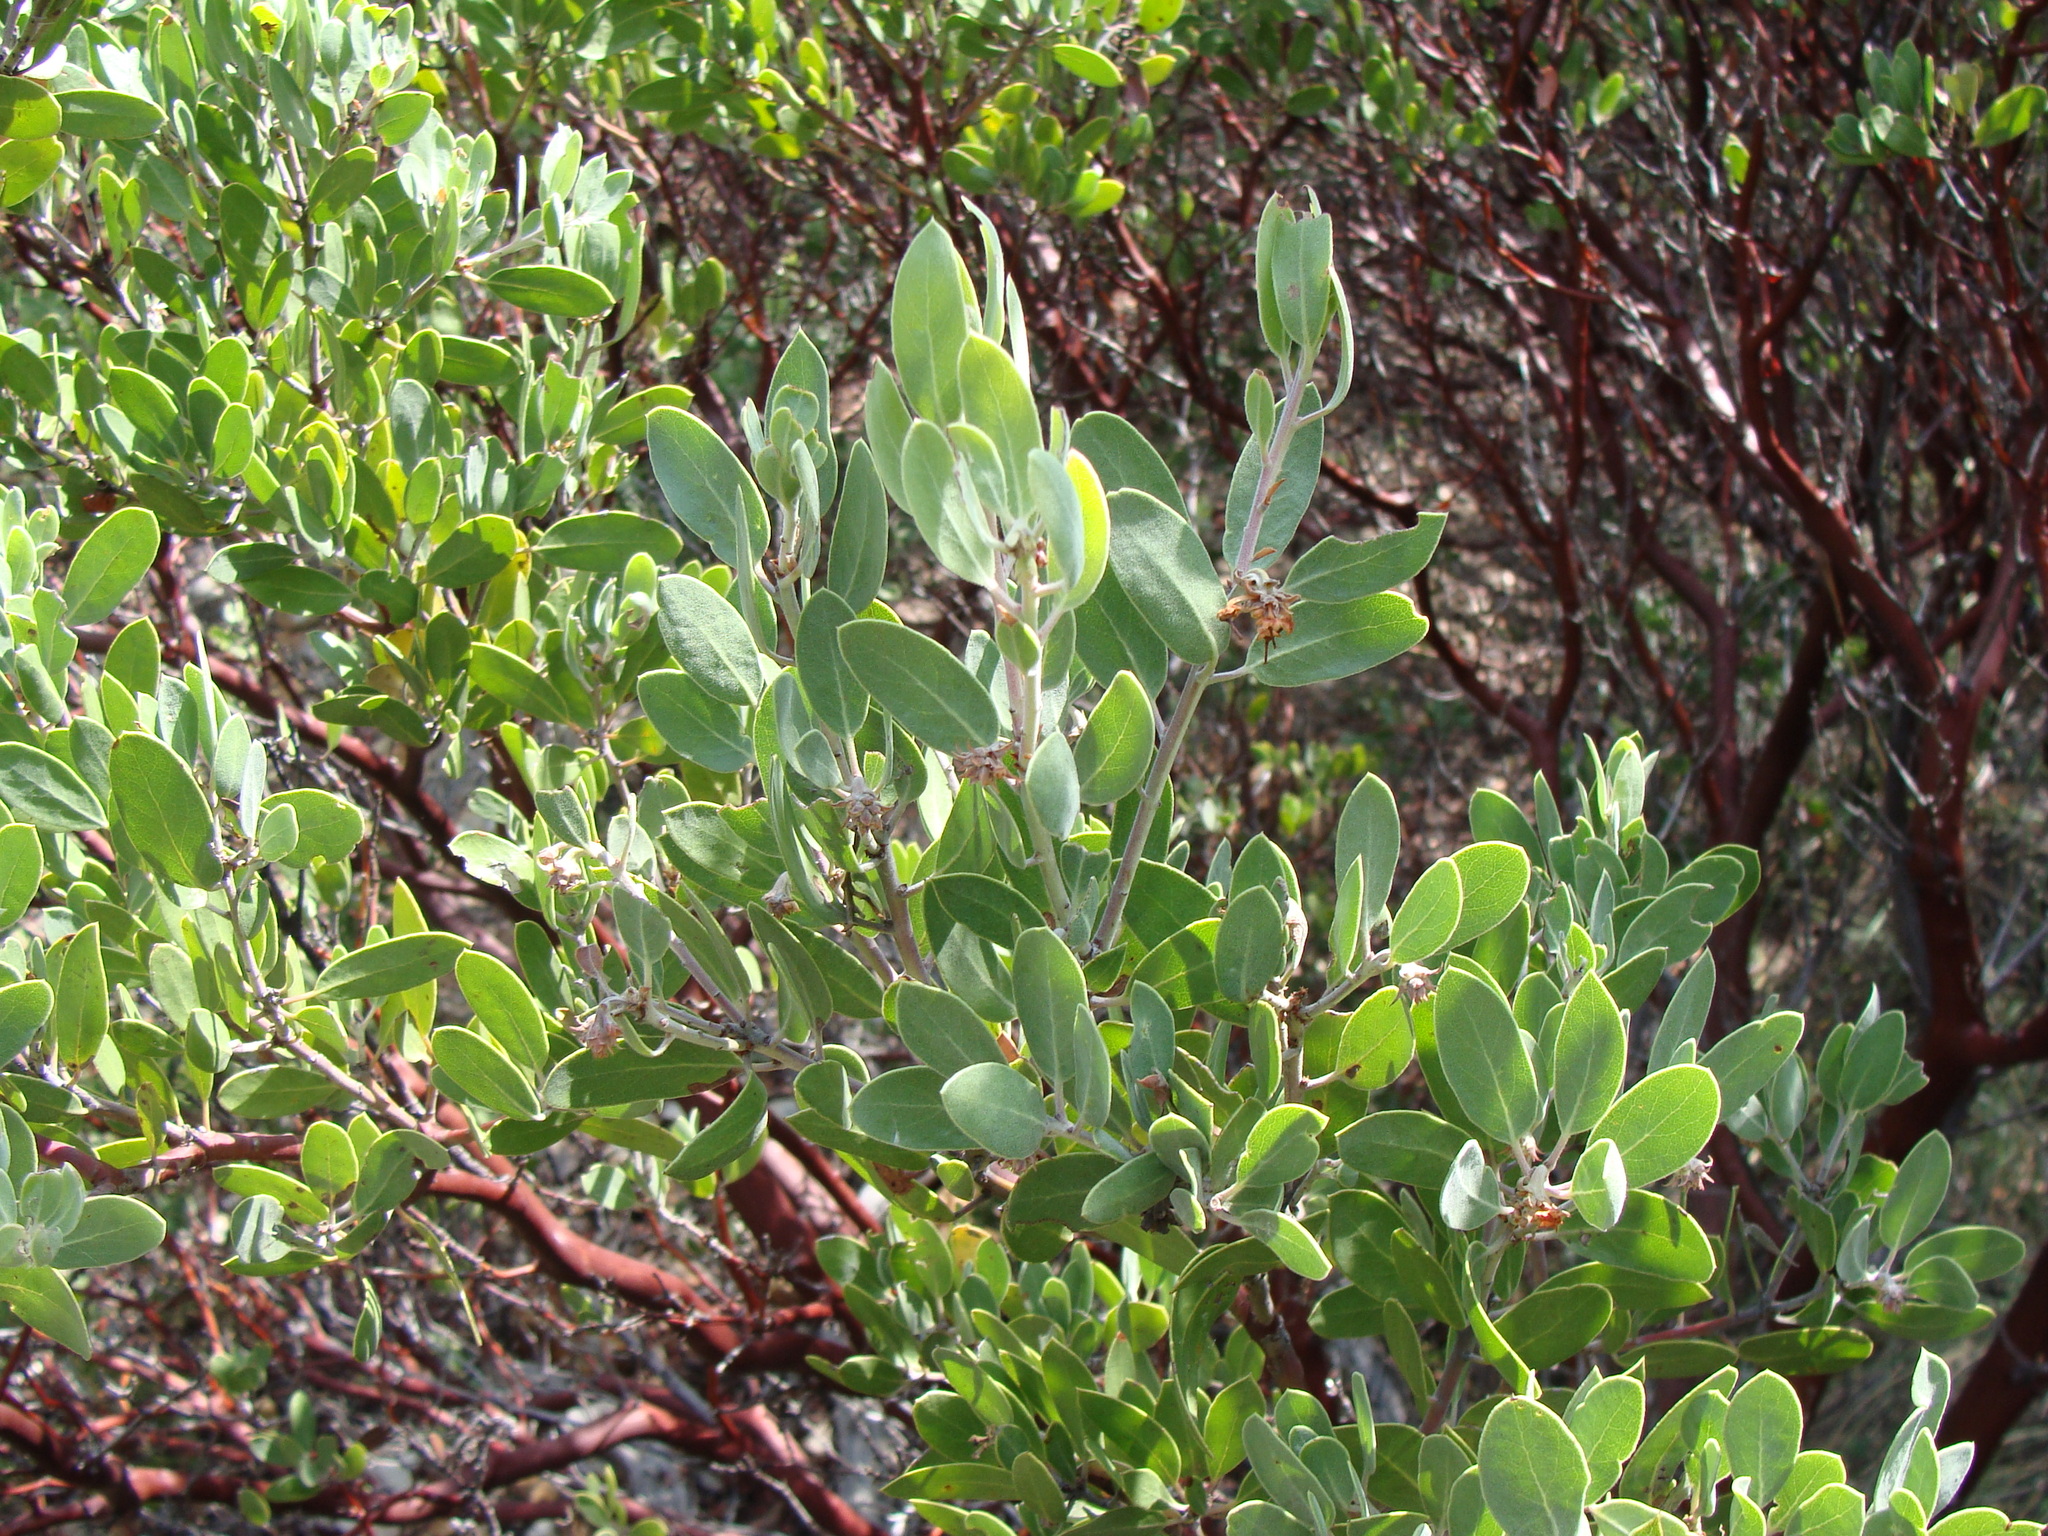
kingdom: Plantae
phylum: Tracheophyta
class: Magnoliopsida
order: Ericales
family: Ericaceae
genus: Arctostaphylos
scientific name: Arctostaphylos pungens
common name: Mexican manzanita
